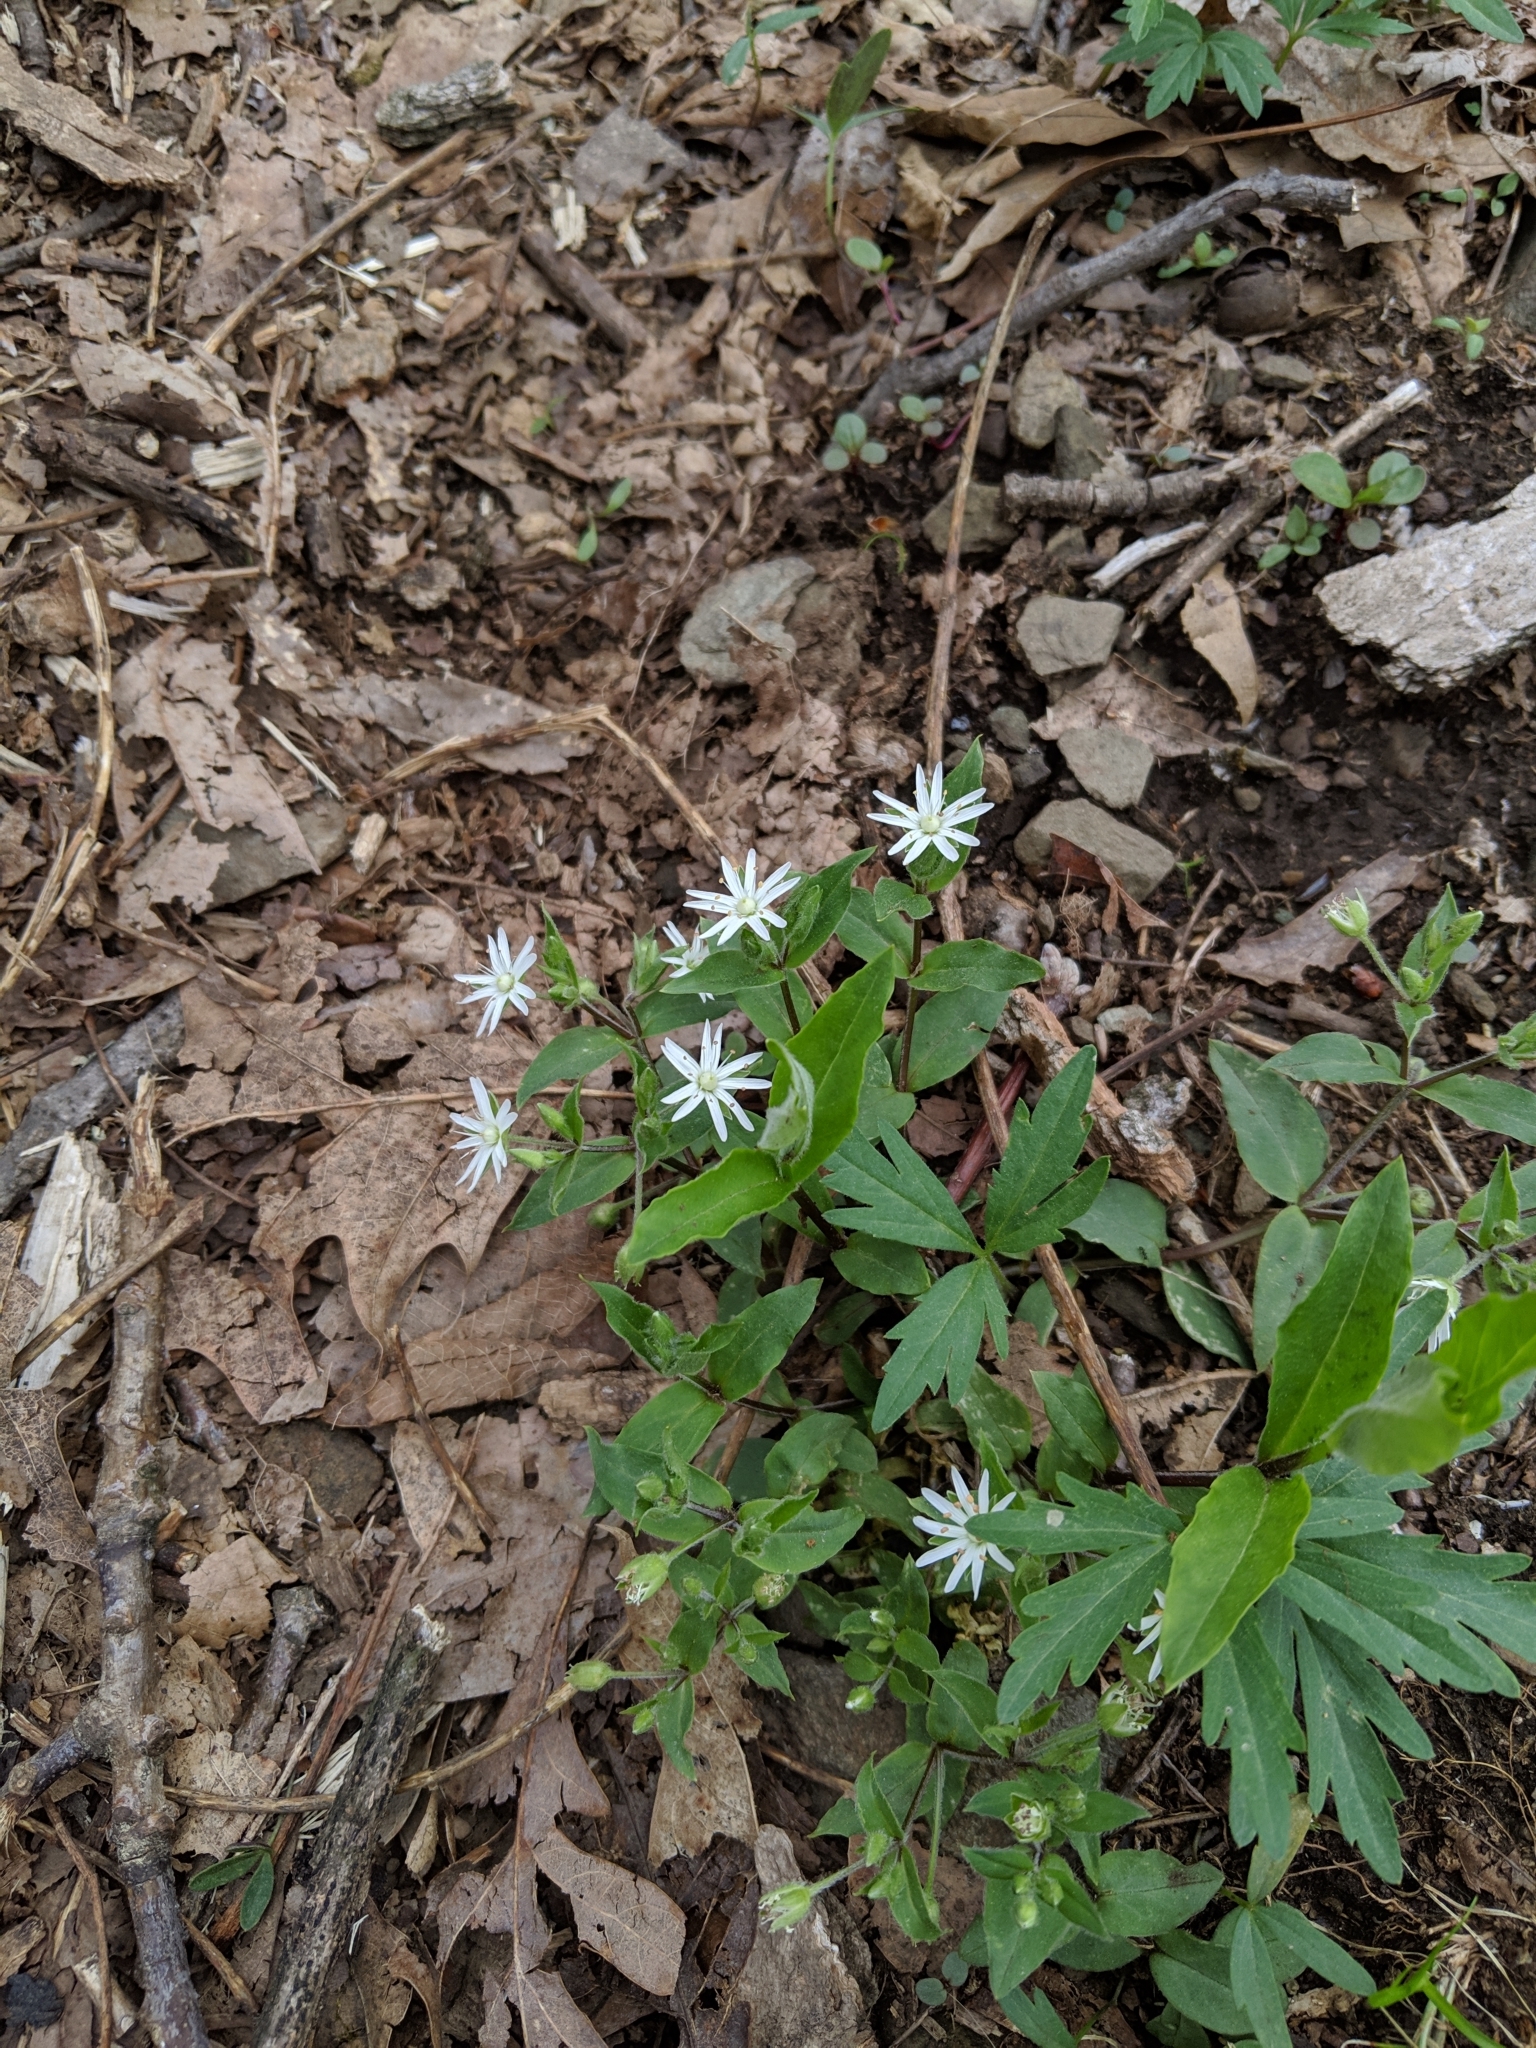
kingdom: Plantae
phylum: Tracheophyta
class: Magnoliopsida
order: Caryophyllales
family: Caryophyllaceae
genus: Stellaria
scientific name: Stellaria pubera
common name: Star chickweed
